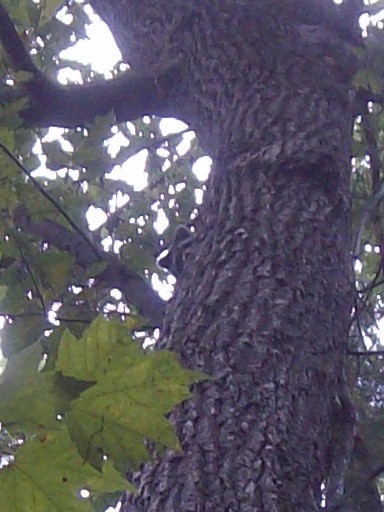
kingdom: Animalia
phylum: Chordata
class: Mammalia
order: Carnivora
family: Procyonidae
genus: Procyon
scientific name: Procyon lotor
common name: Raccoon
